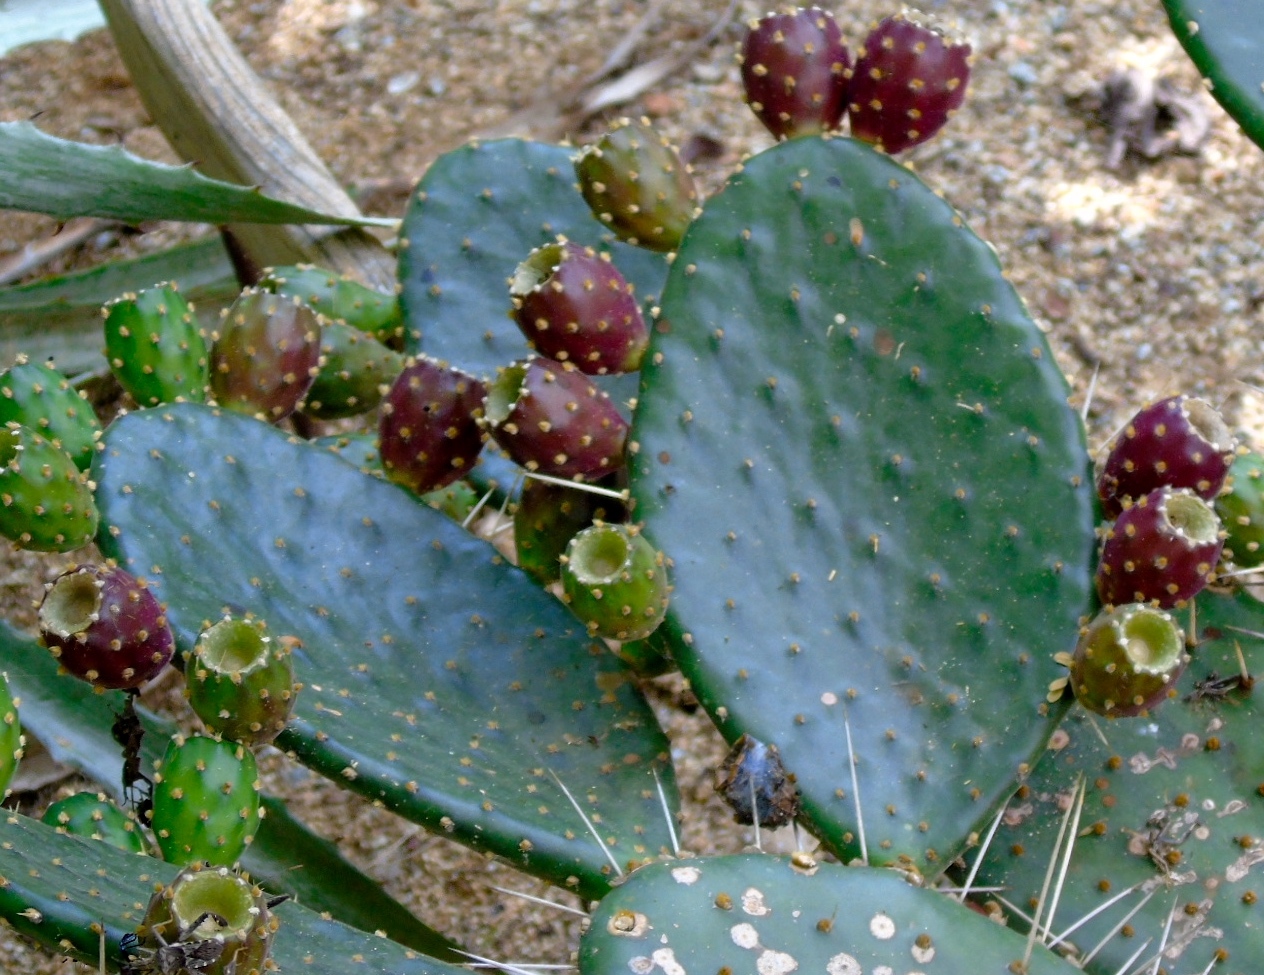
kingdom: Plantae
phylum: Tracheophyta
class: Magnoliopsida
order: Caryophyllales
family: Cactaceae
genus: Opuntia
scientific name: Opuntia decumbens
